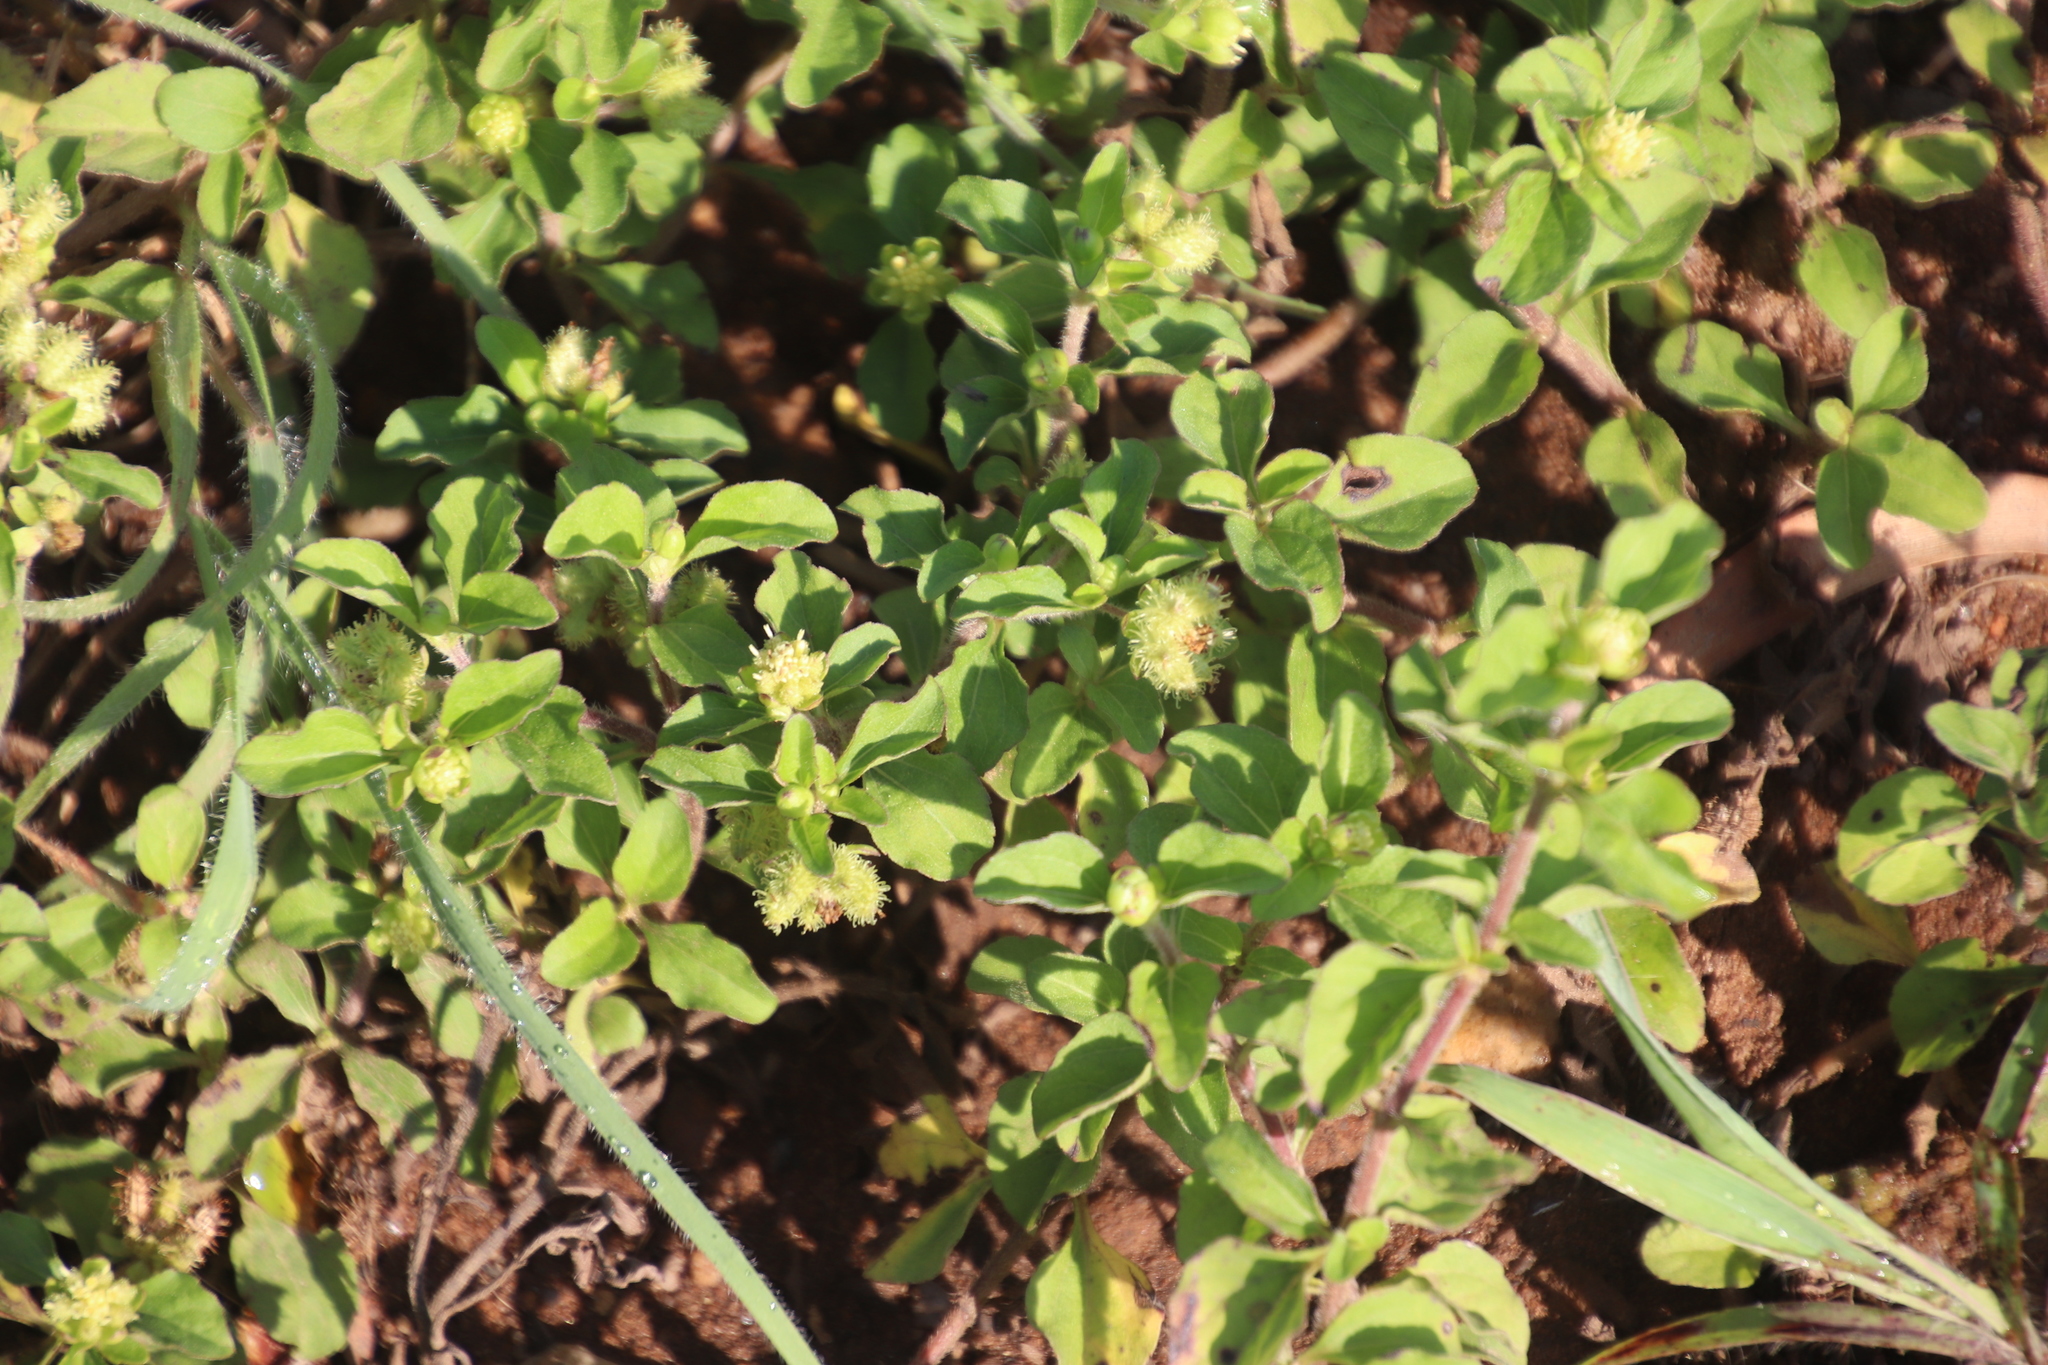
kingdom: Plantae
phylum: Tracheophyta
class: Magnoliopsida
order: Asterales
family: Asteraceae
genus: Acanthospermum
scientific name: Acanthospermum australe
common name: Paraguayan starbur
